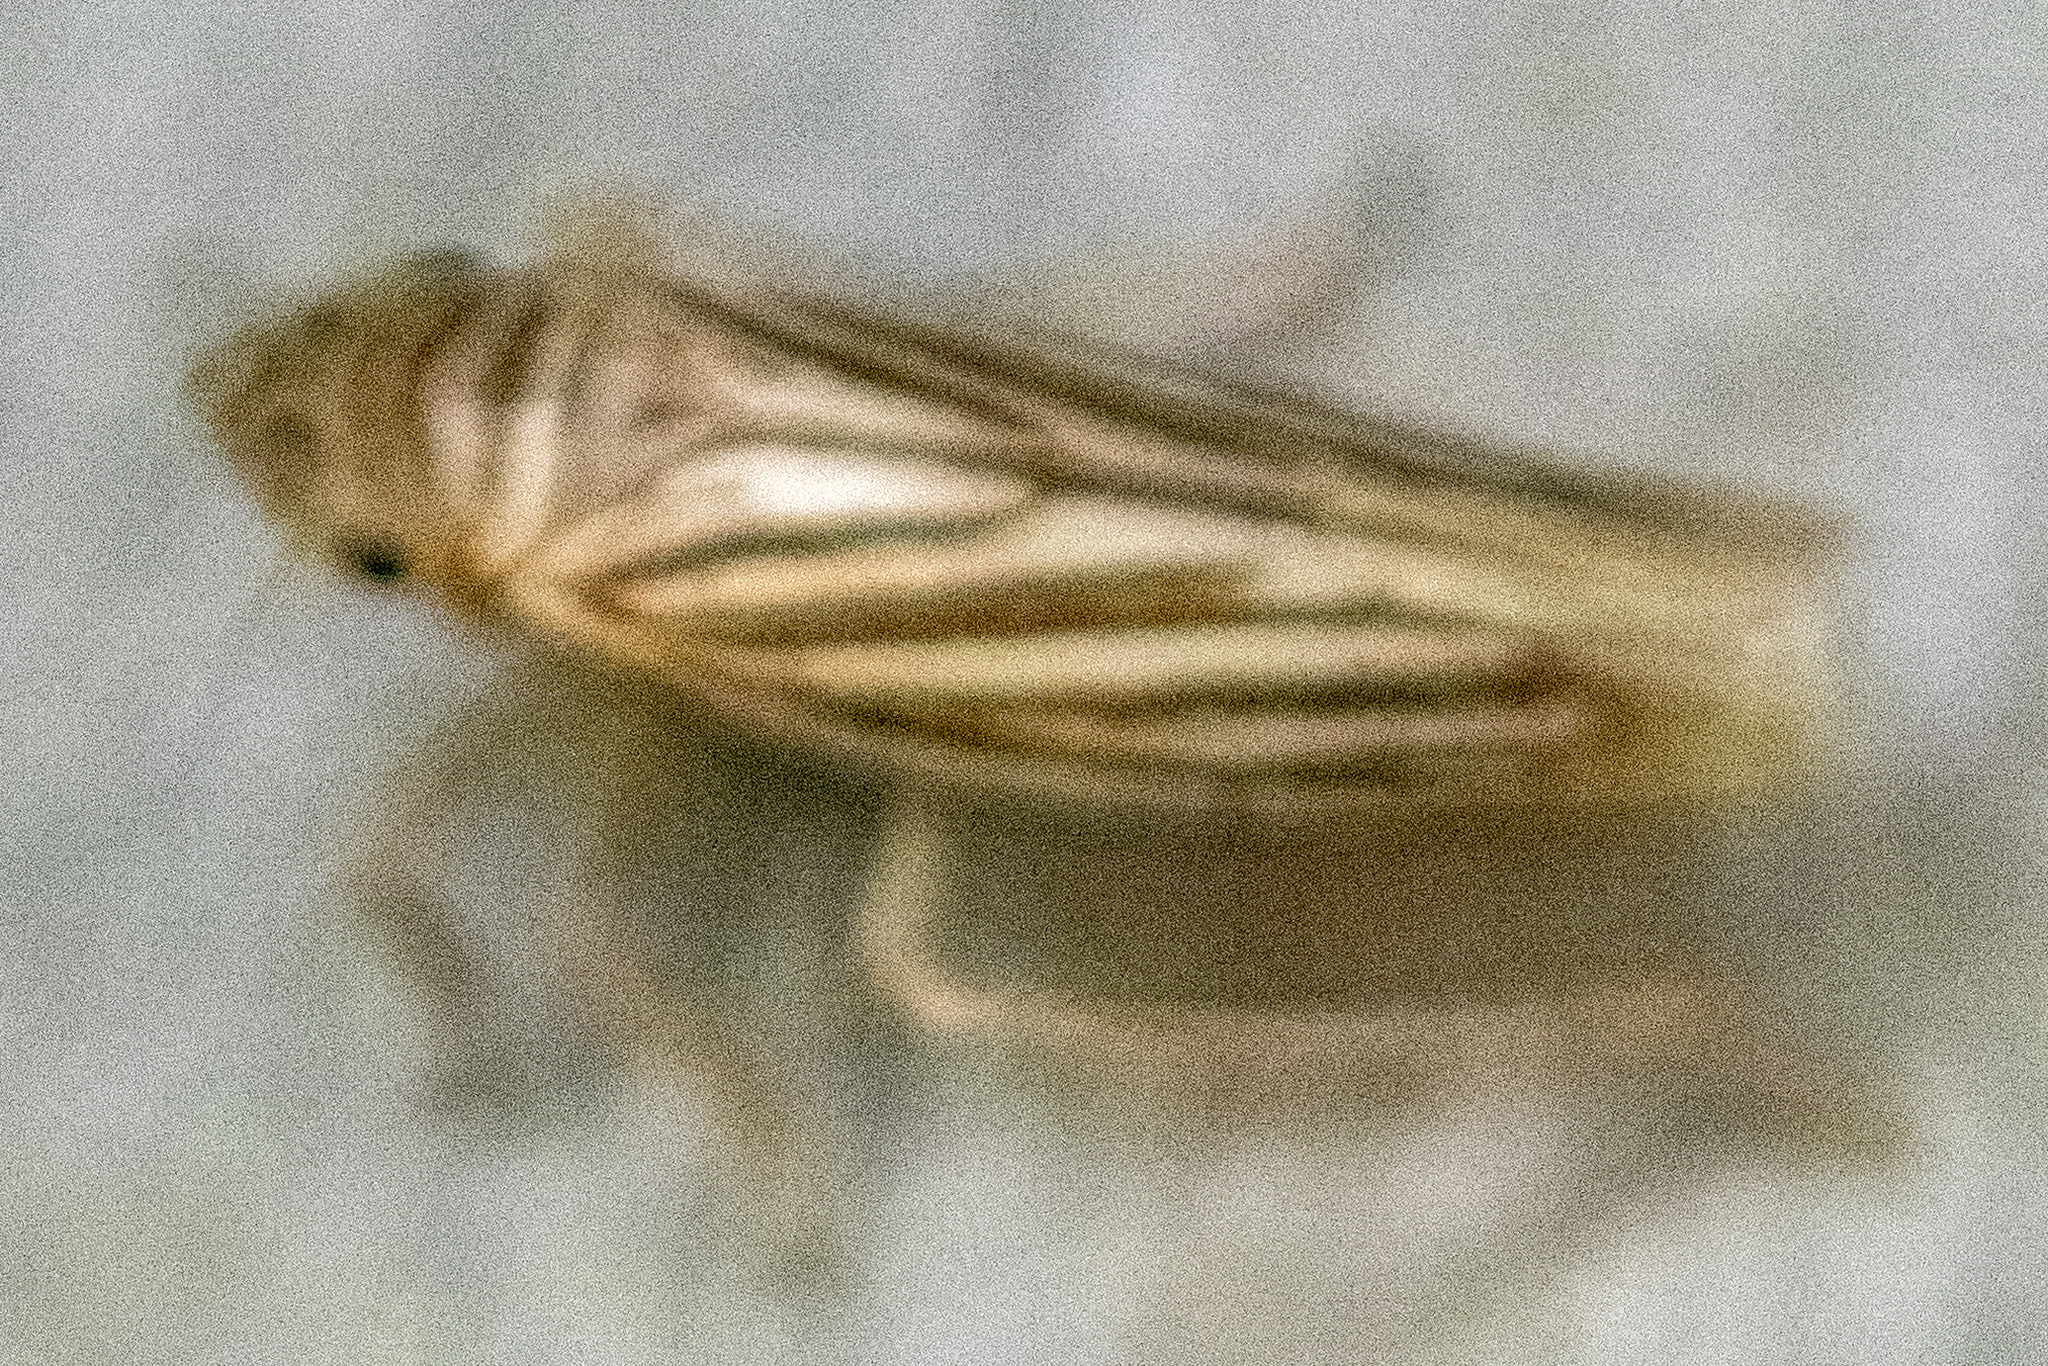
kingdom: Animalia
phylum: Arthropoda
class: Insecta
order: Hemiptera
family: Cicadellidae
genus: Provancherana
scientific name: Provancherana tripunctata
